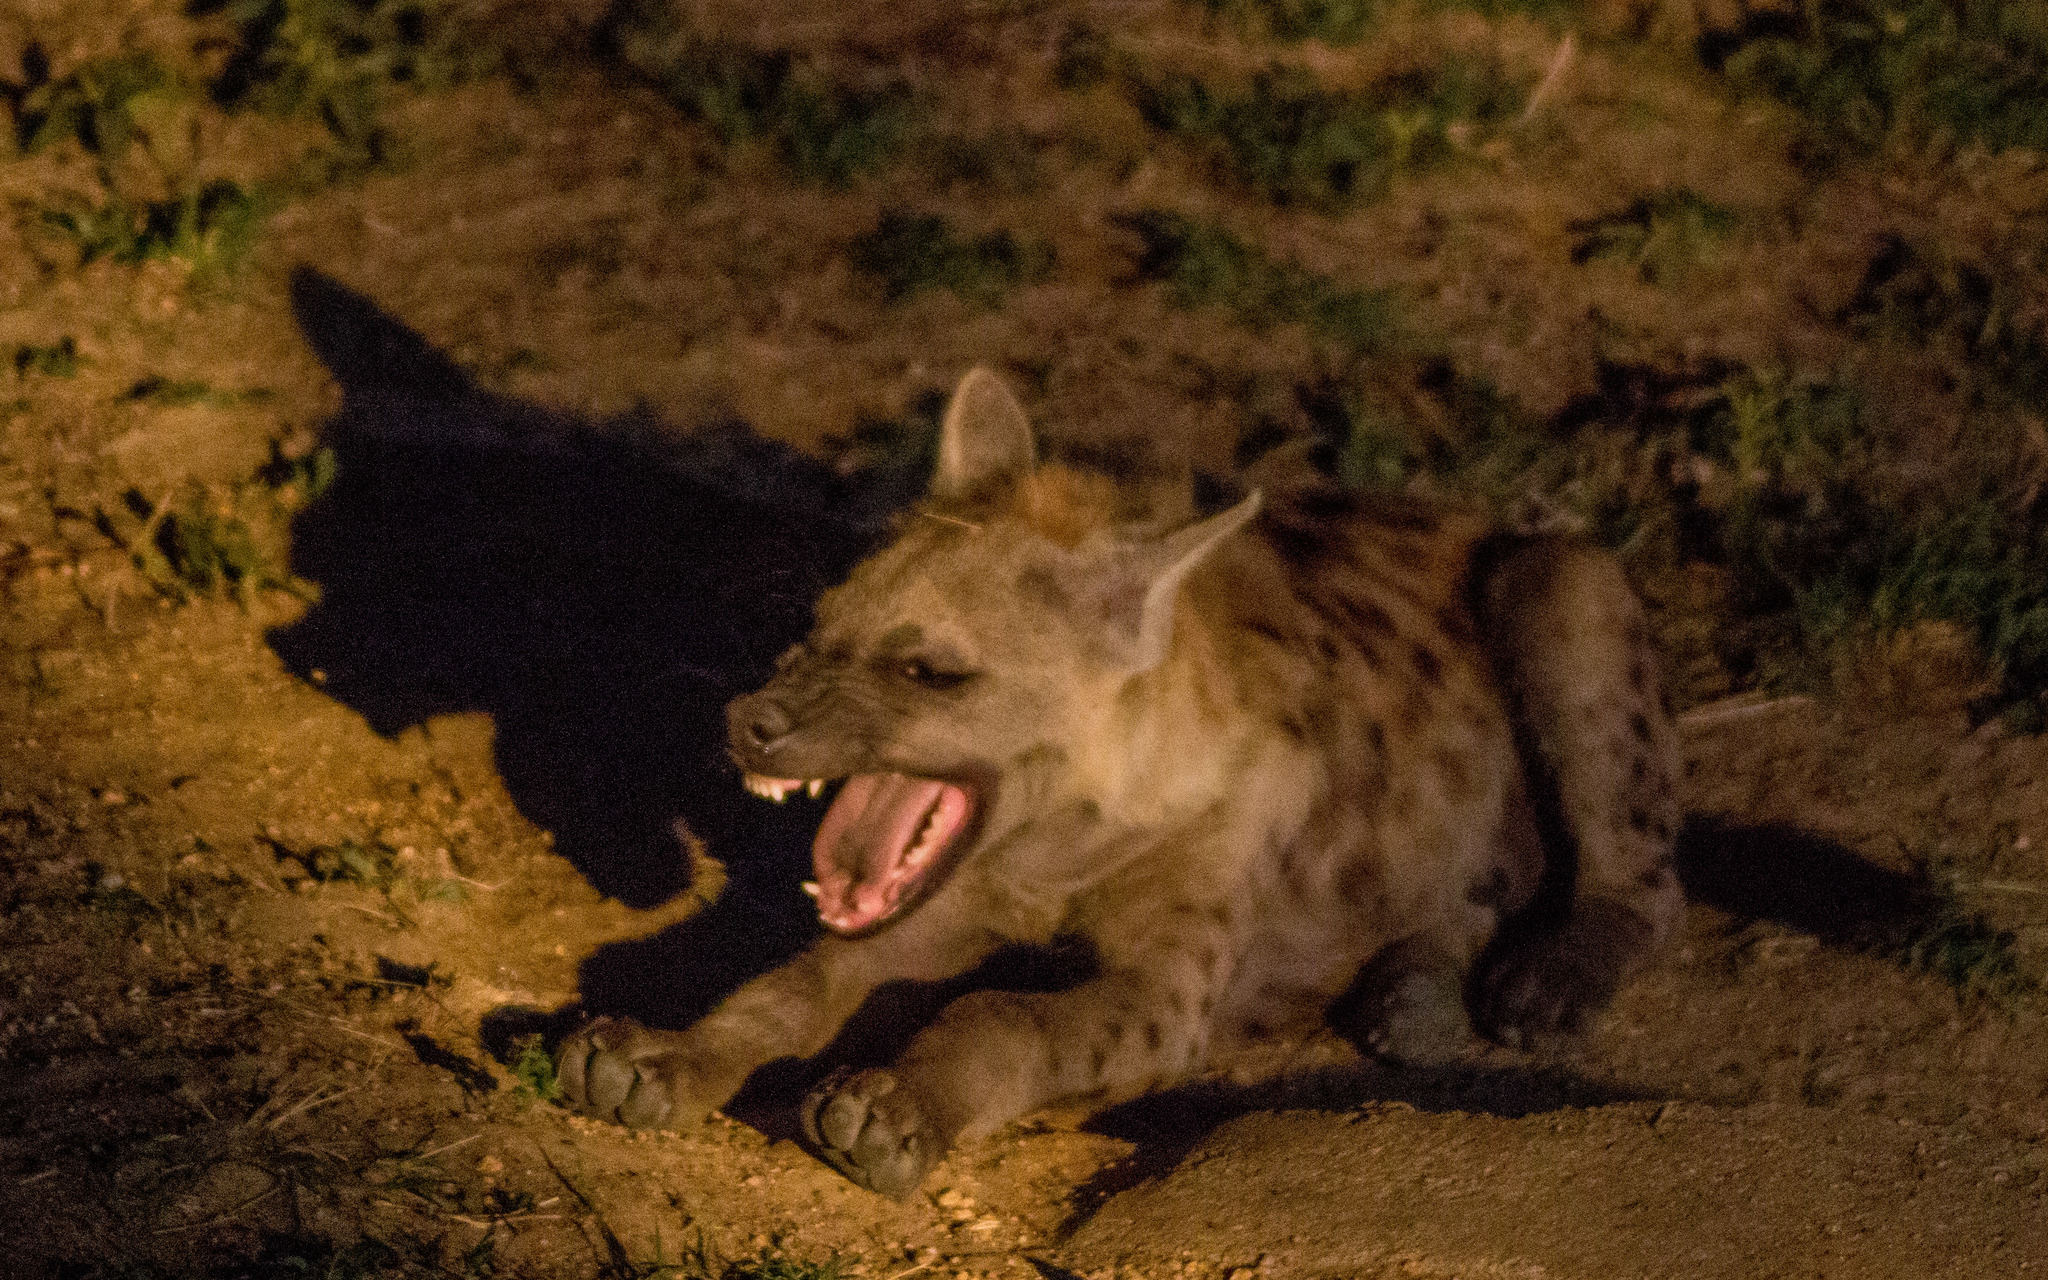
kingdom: Animalia
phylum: Chordata
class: Mammalia
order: Carnivora
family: Hyaenidae
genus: Crocuta
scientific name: Crocuta crocuta
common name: Spotted hyaena
